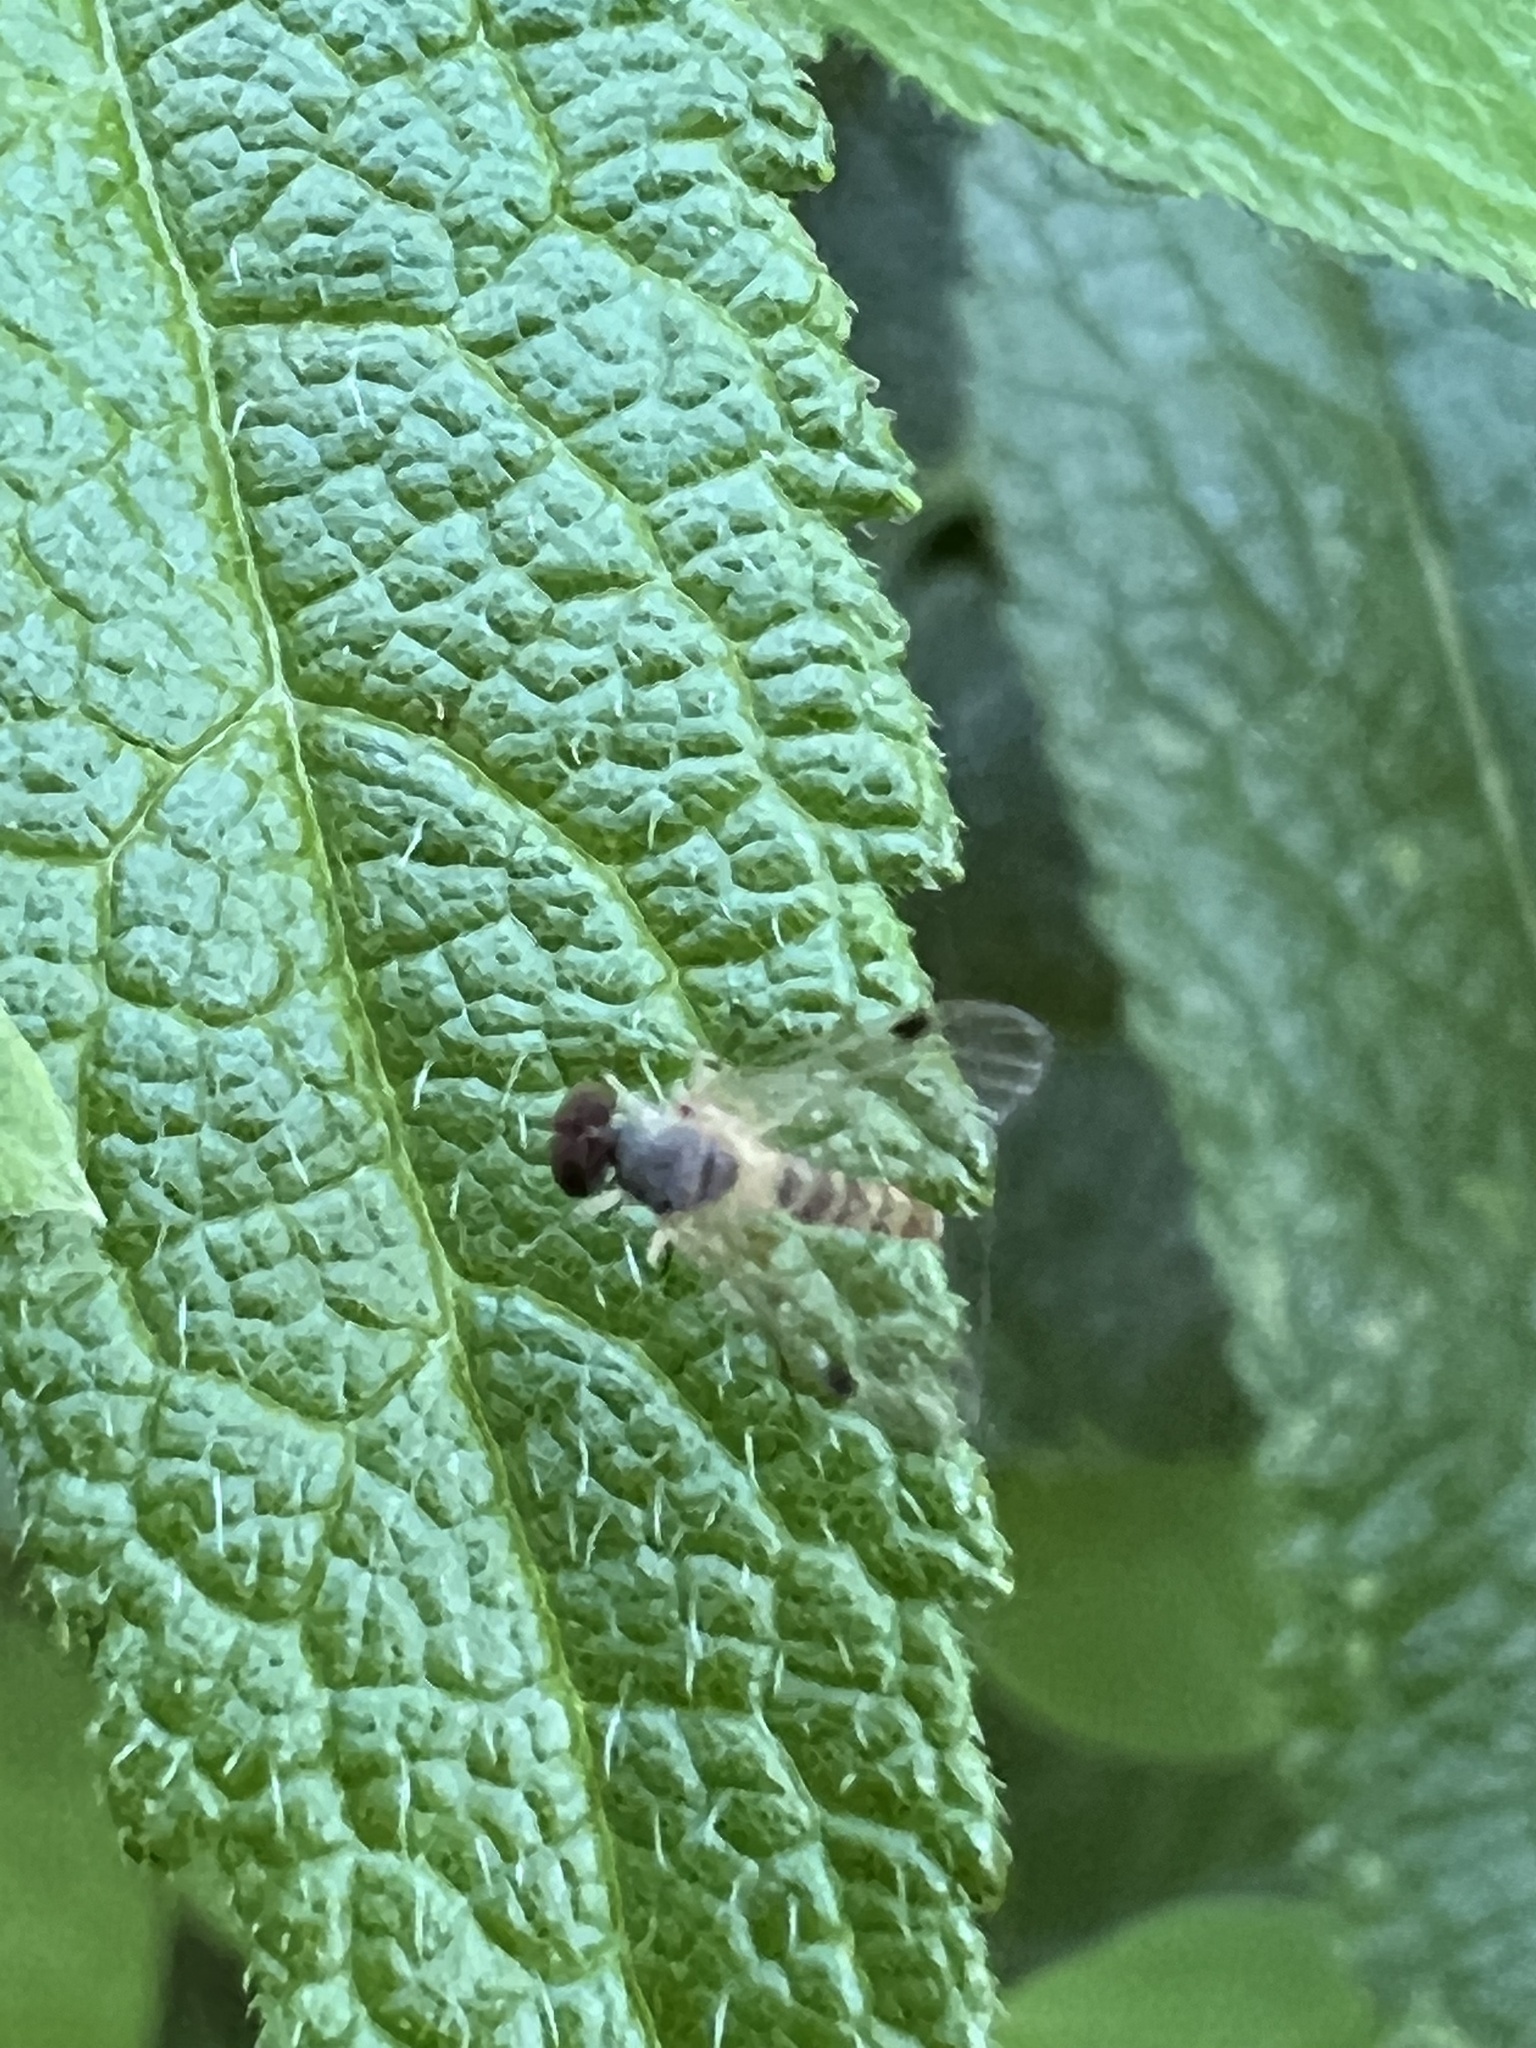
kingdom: Animalia
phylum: Arthropoda
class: Insecta
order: Diptera
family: Rhagionidae
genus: Chrysopilus
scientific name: Chrysopilus modestus
